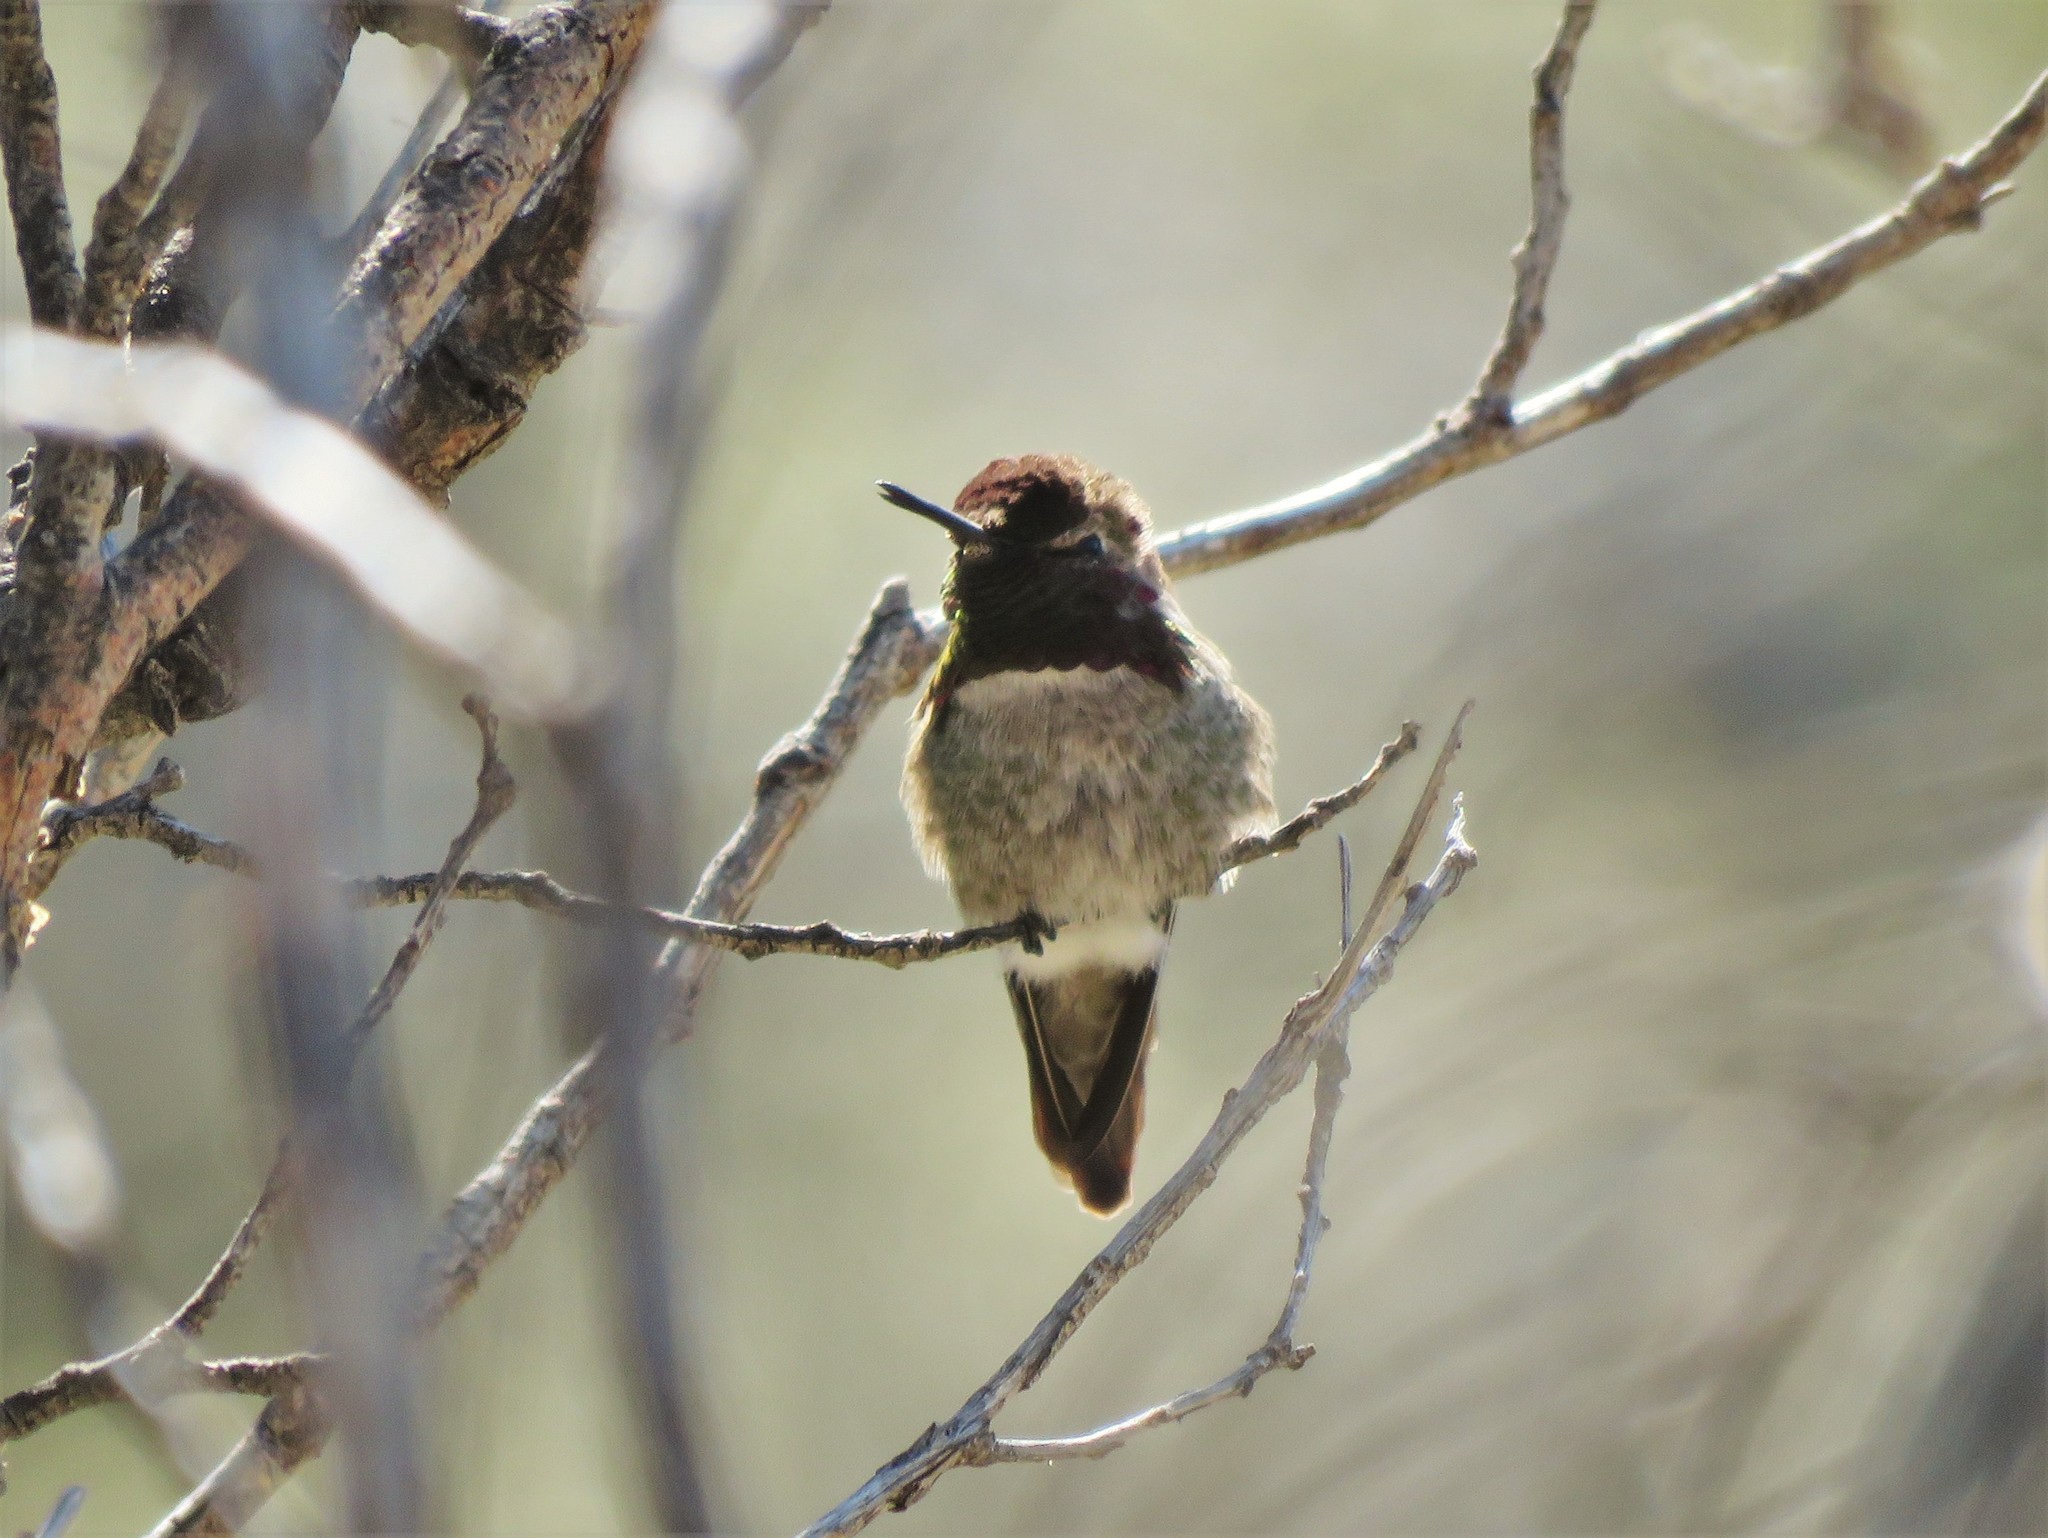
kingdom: Animalia
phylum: Chordata
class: Aves
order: Apodiformes
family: Trochilidae
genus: Calypte
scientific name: Calypte anna
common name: Anna's hummingbird
